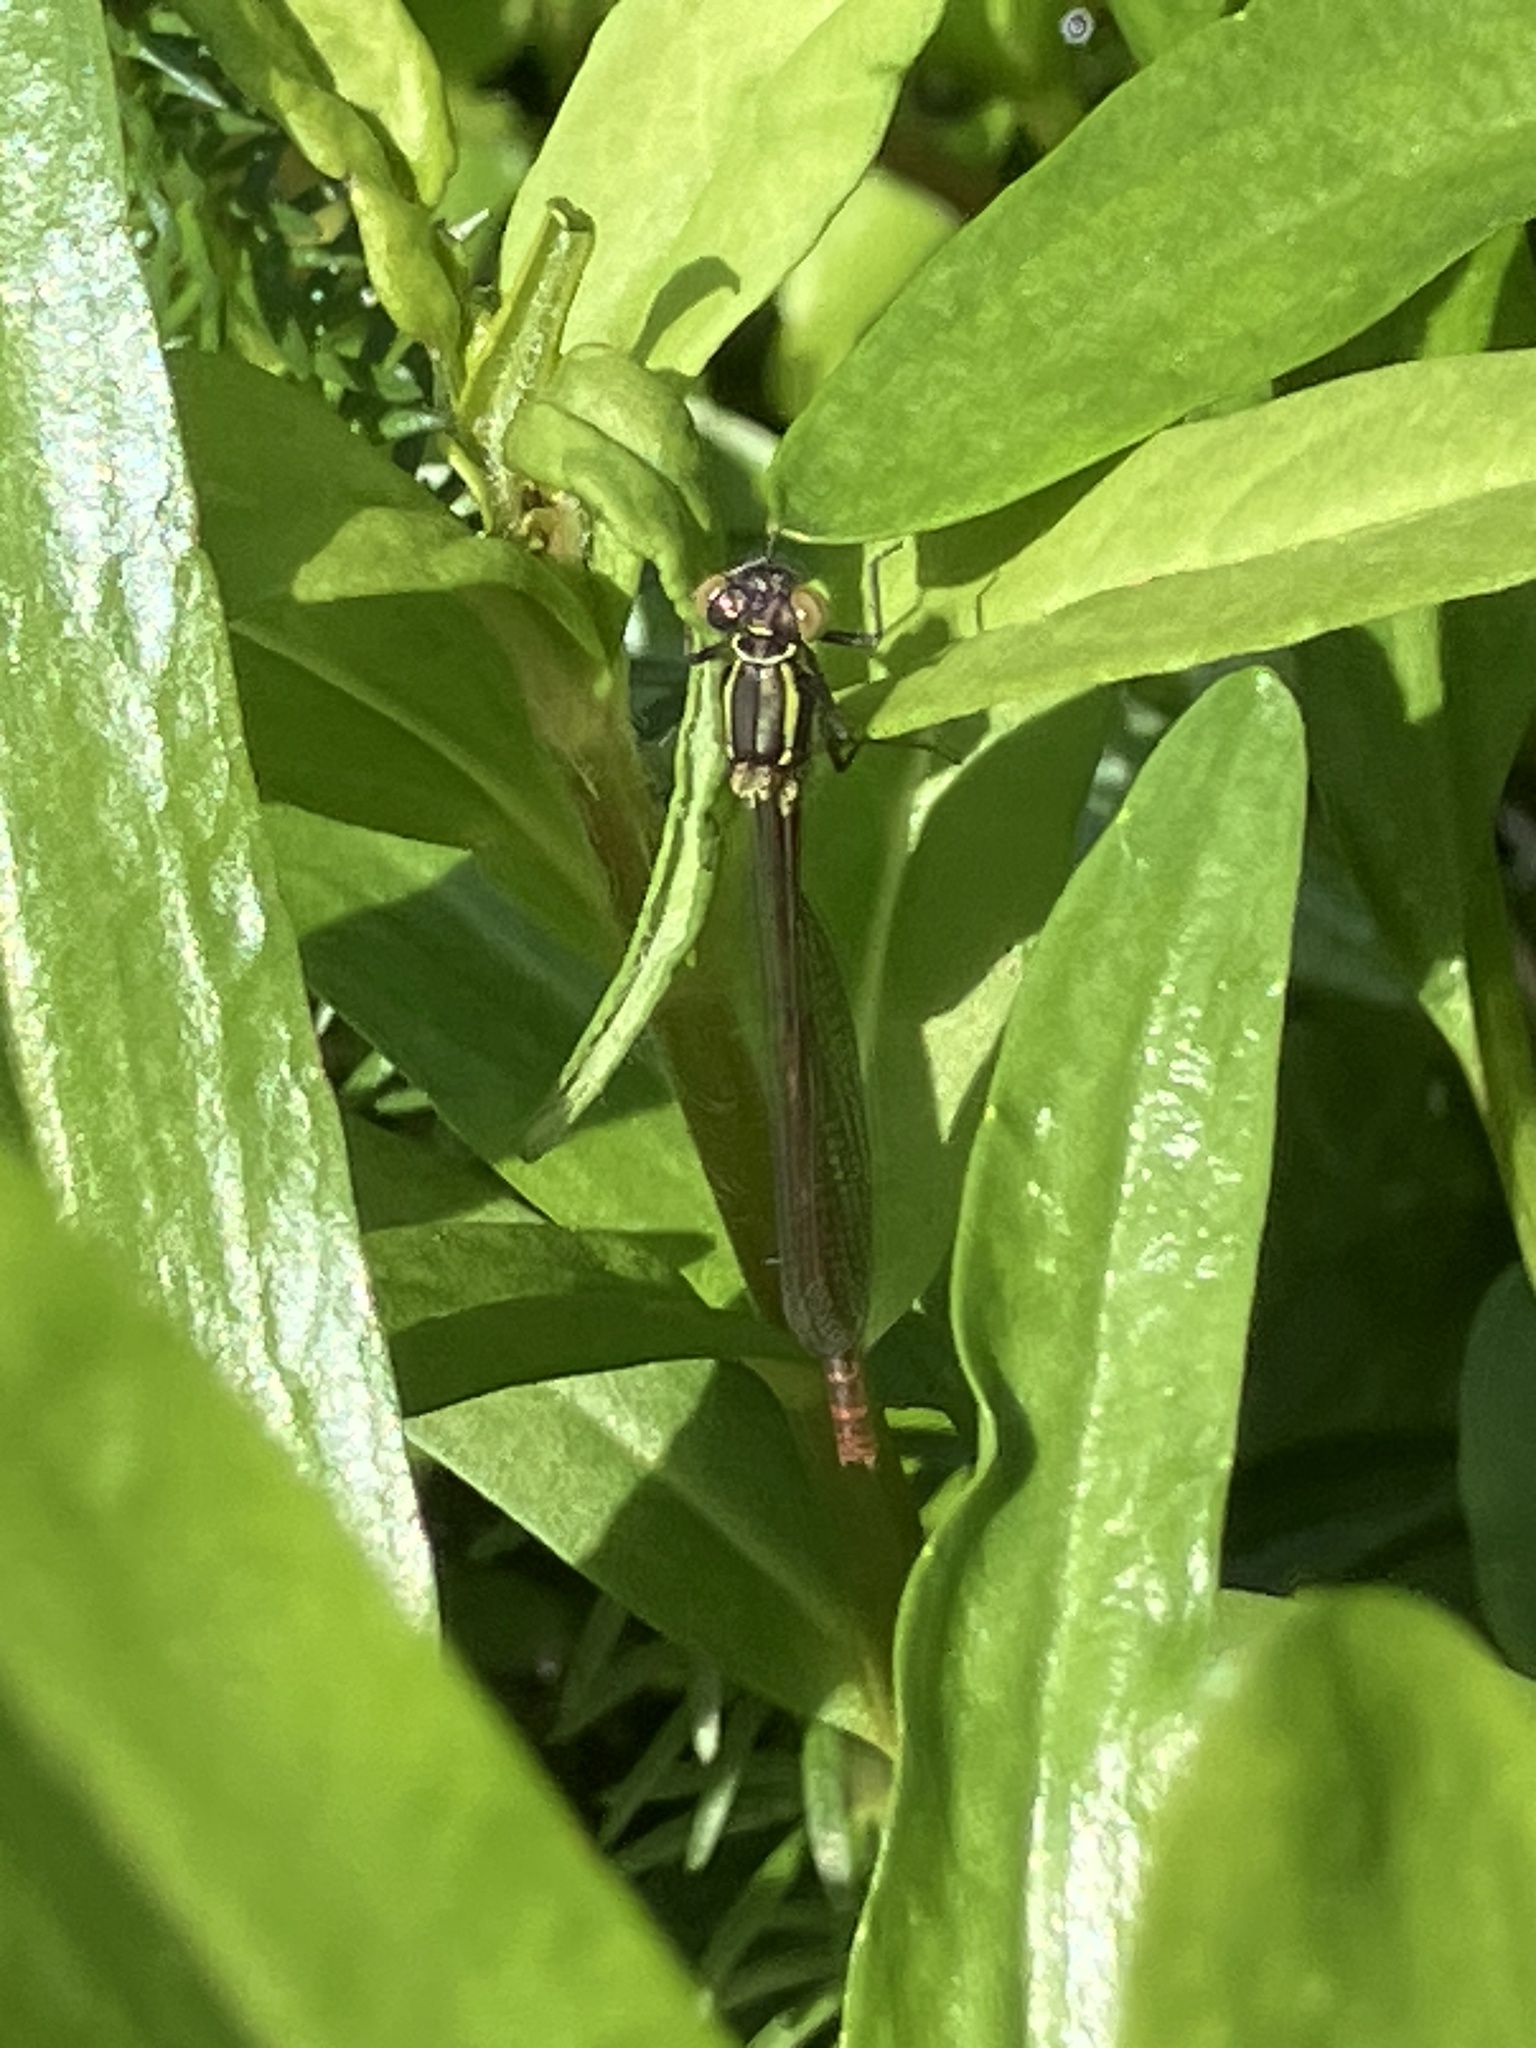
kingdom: Animalia
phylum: Arthropoda
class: Insecta
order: Odonata
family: Coenagrionidae
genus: Pyrrhosoma
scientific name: Pyrrhosoma nymphula
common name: Large red damsel
